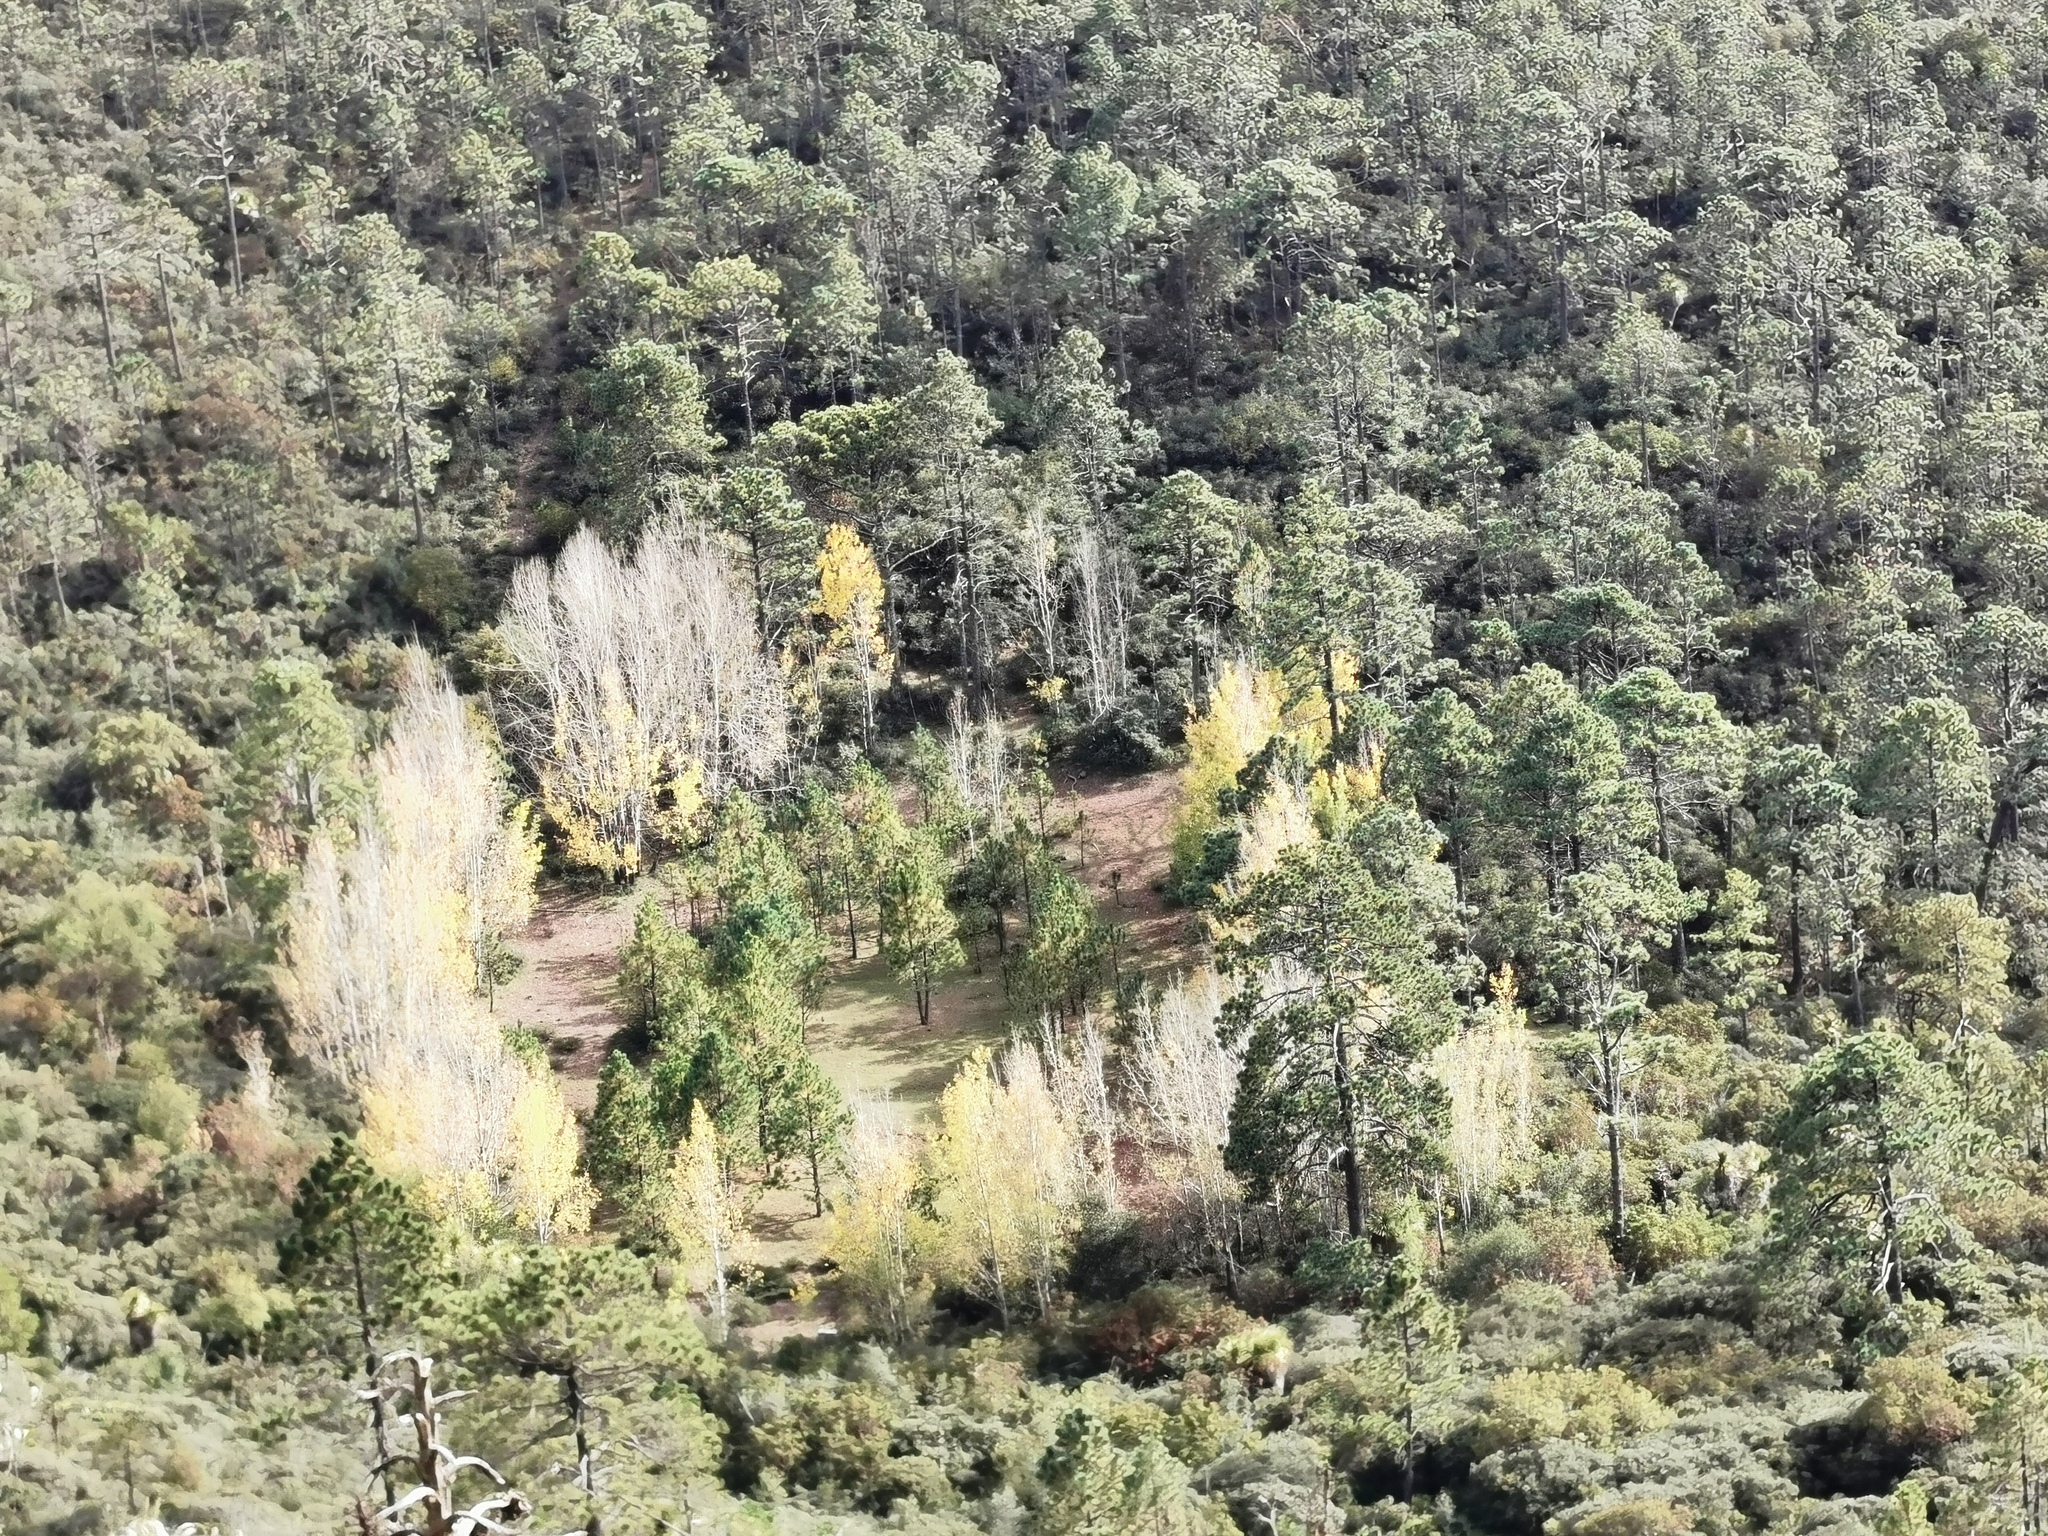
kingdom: Plantae
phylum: Tracheophyta
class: Magnoliopsida
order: Malpighiales
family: Salicaceae
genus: Populus
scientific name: Populus tremuloides
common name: Quaking aspen
